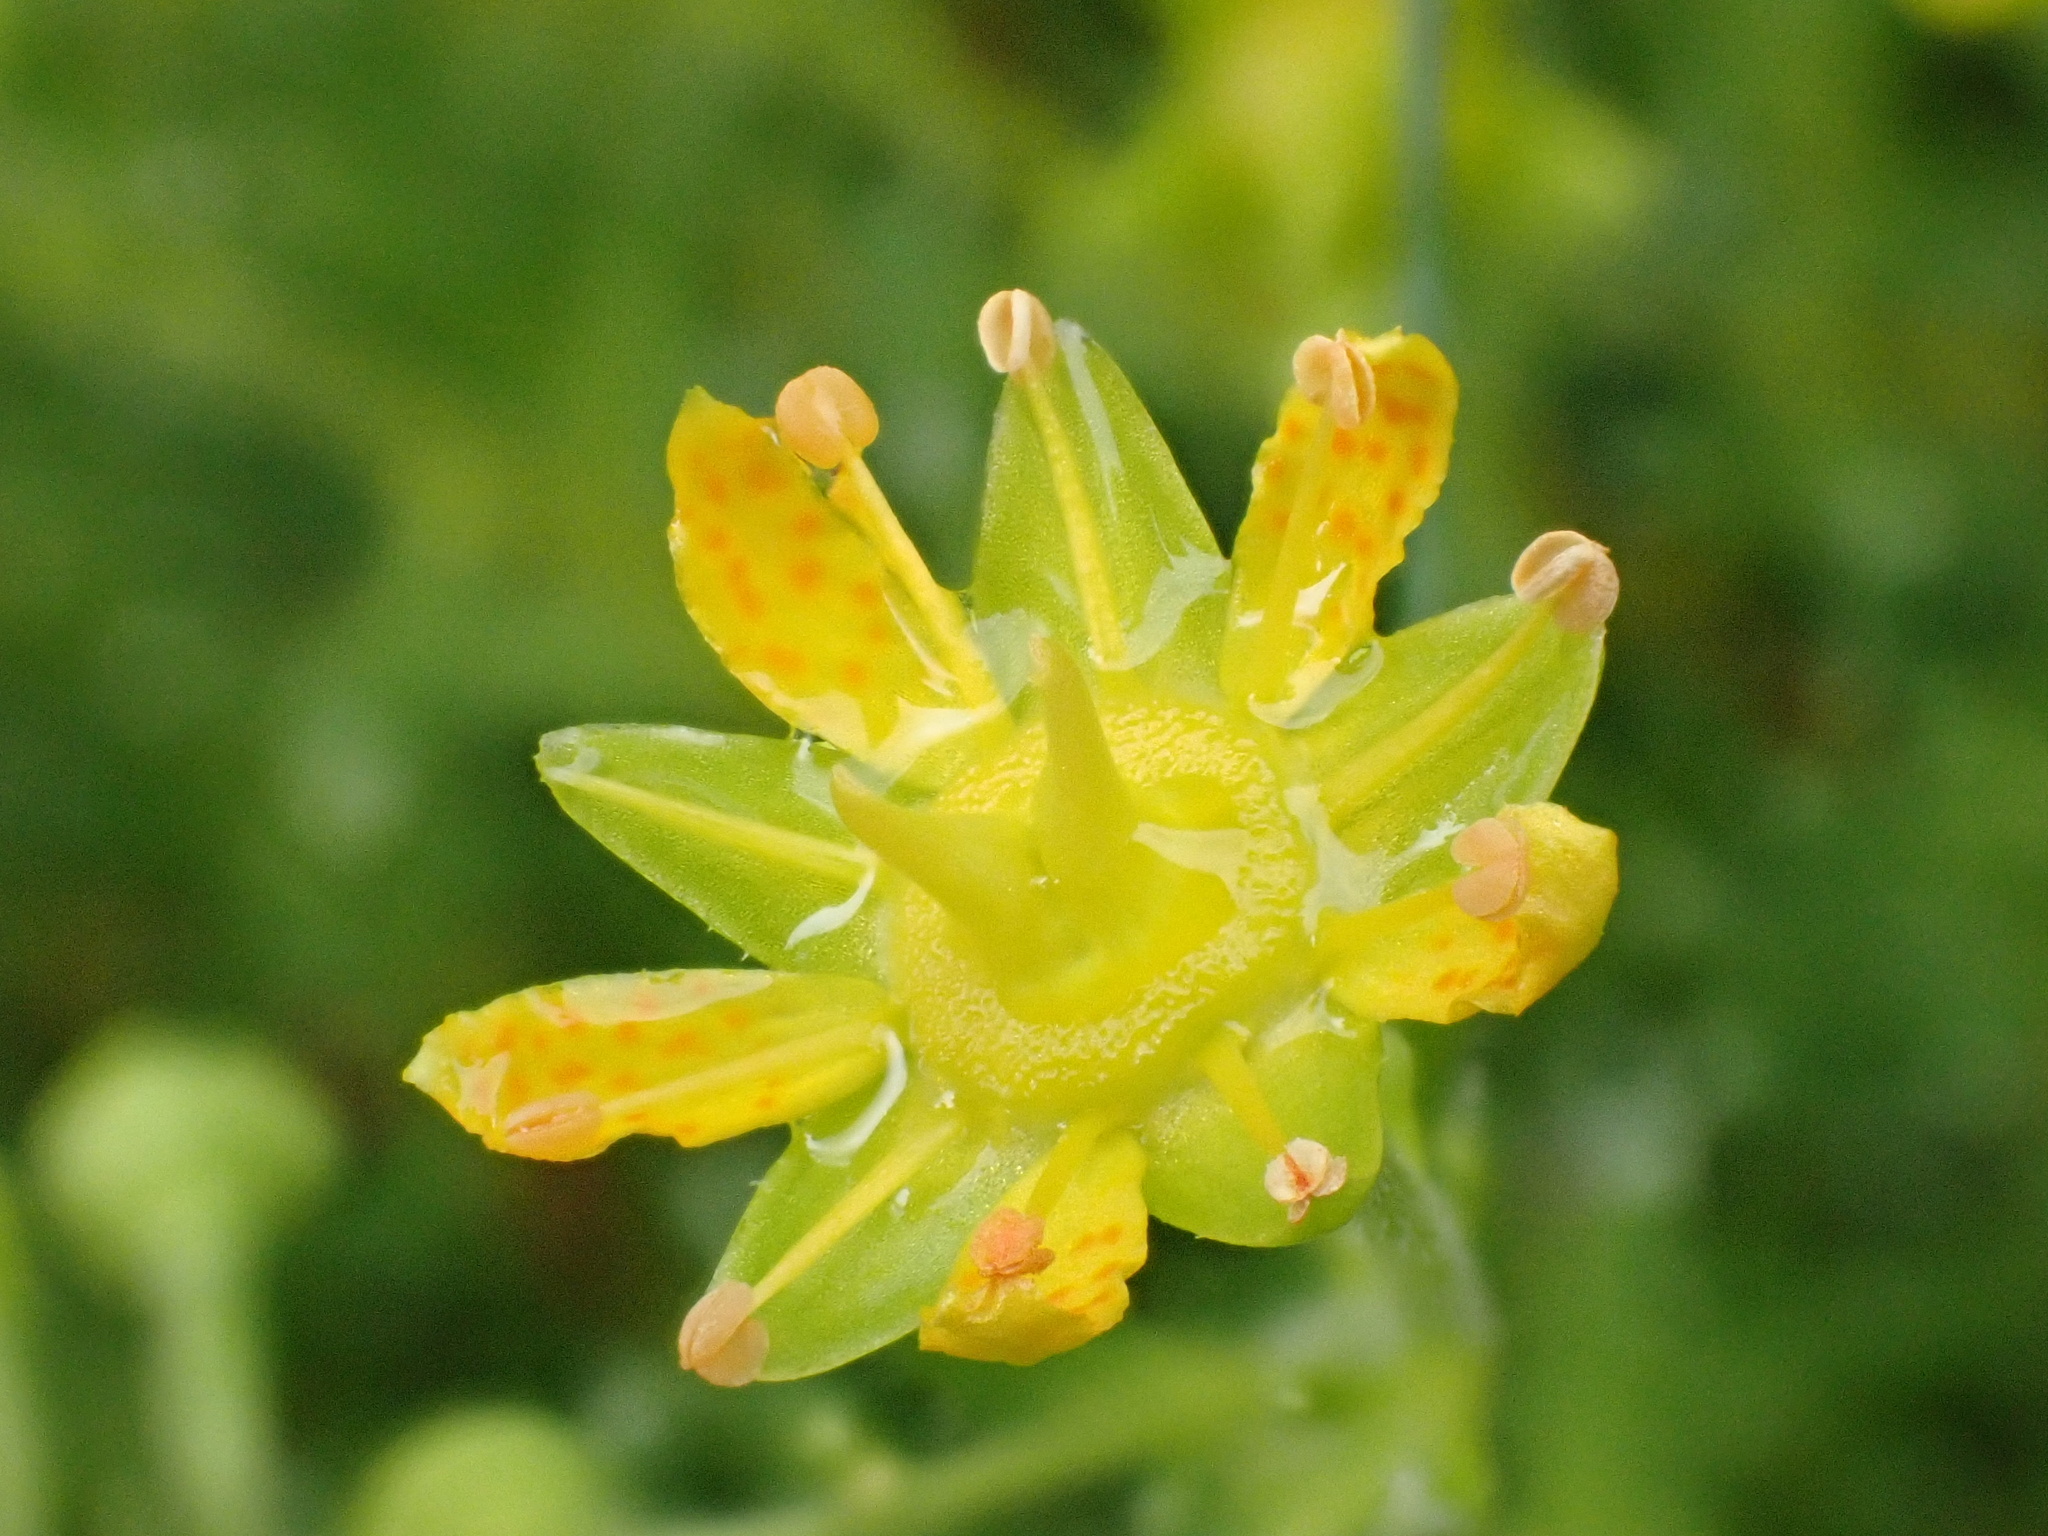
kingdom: Plantae
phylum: Tracheophyta
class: Magnoliopsida
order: Saxifragales
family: Saxifragaceae
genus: Saxifraga
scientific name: Saxifraga aizoides
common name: Yellow mountain saxifrage
